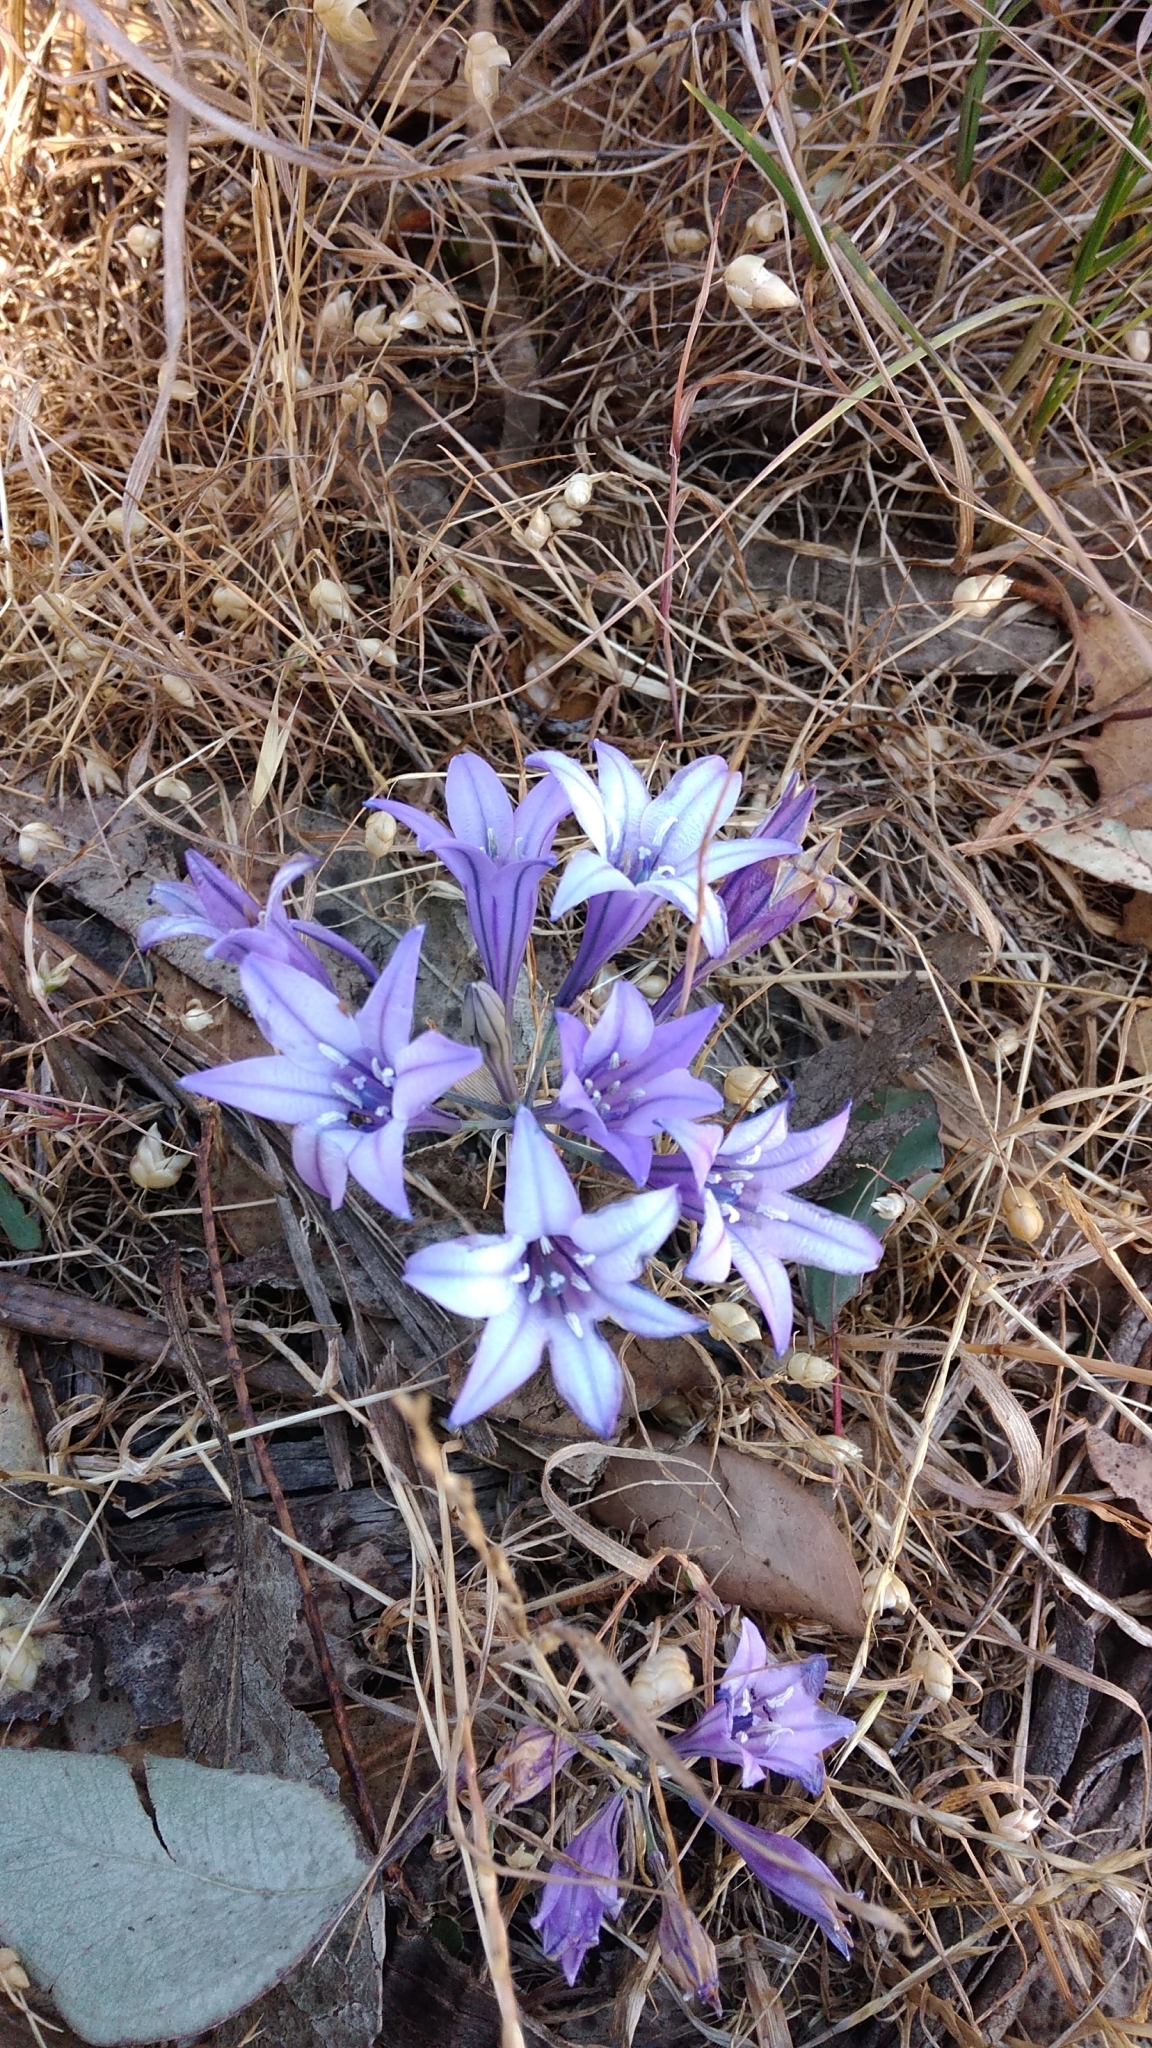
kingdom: Plantae
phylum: Tracheophyta
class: Liliopsida
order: Asparagales
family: Asparagaceae
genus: Triteleia
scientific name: Triteleia laxa
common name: Triplet-lily
